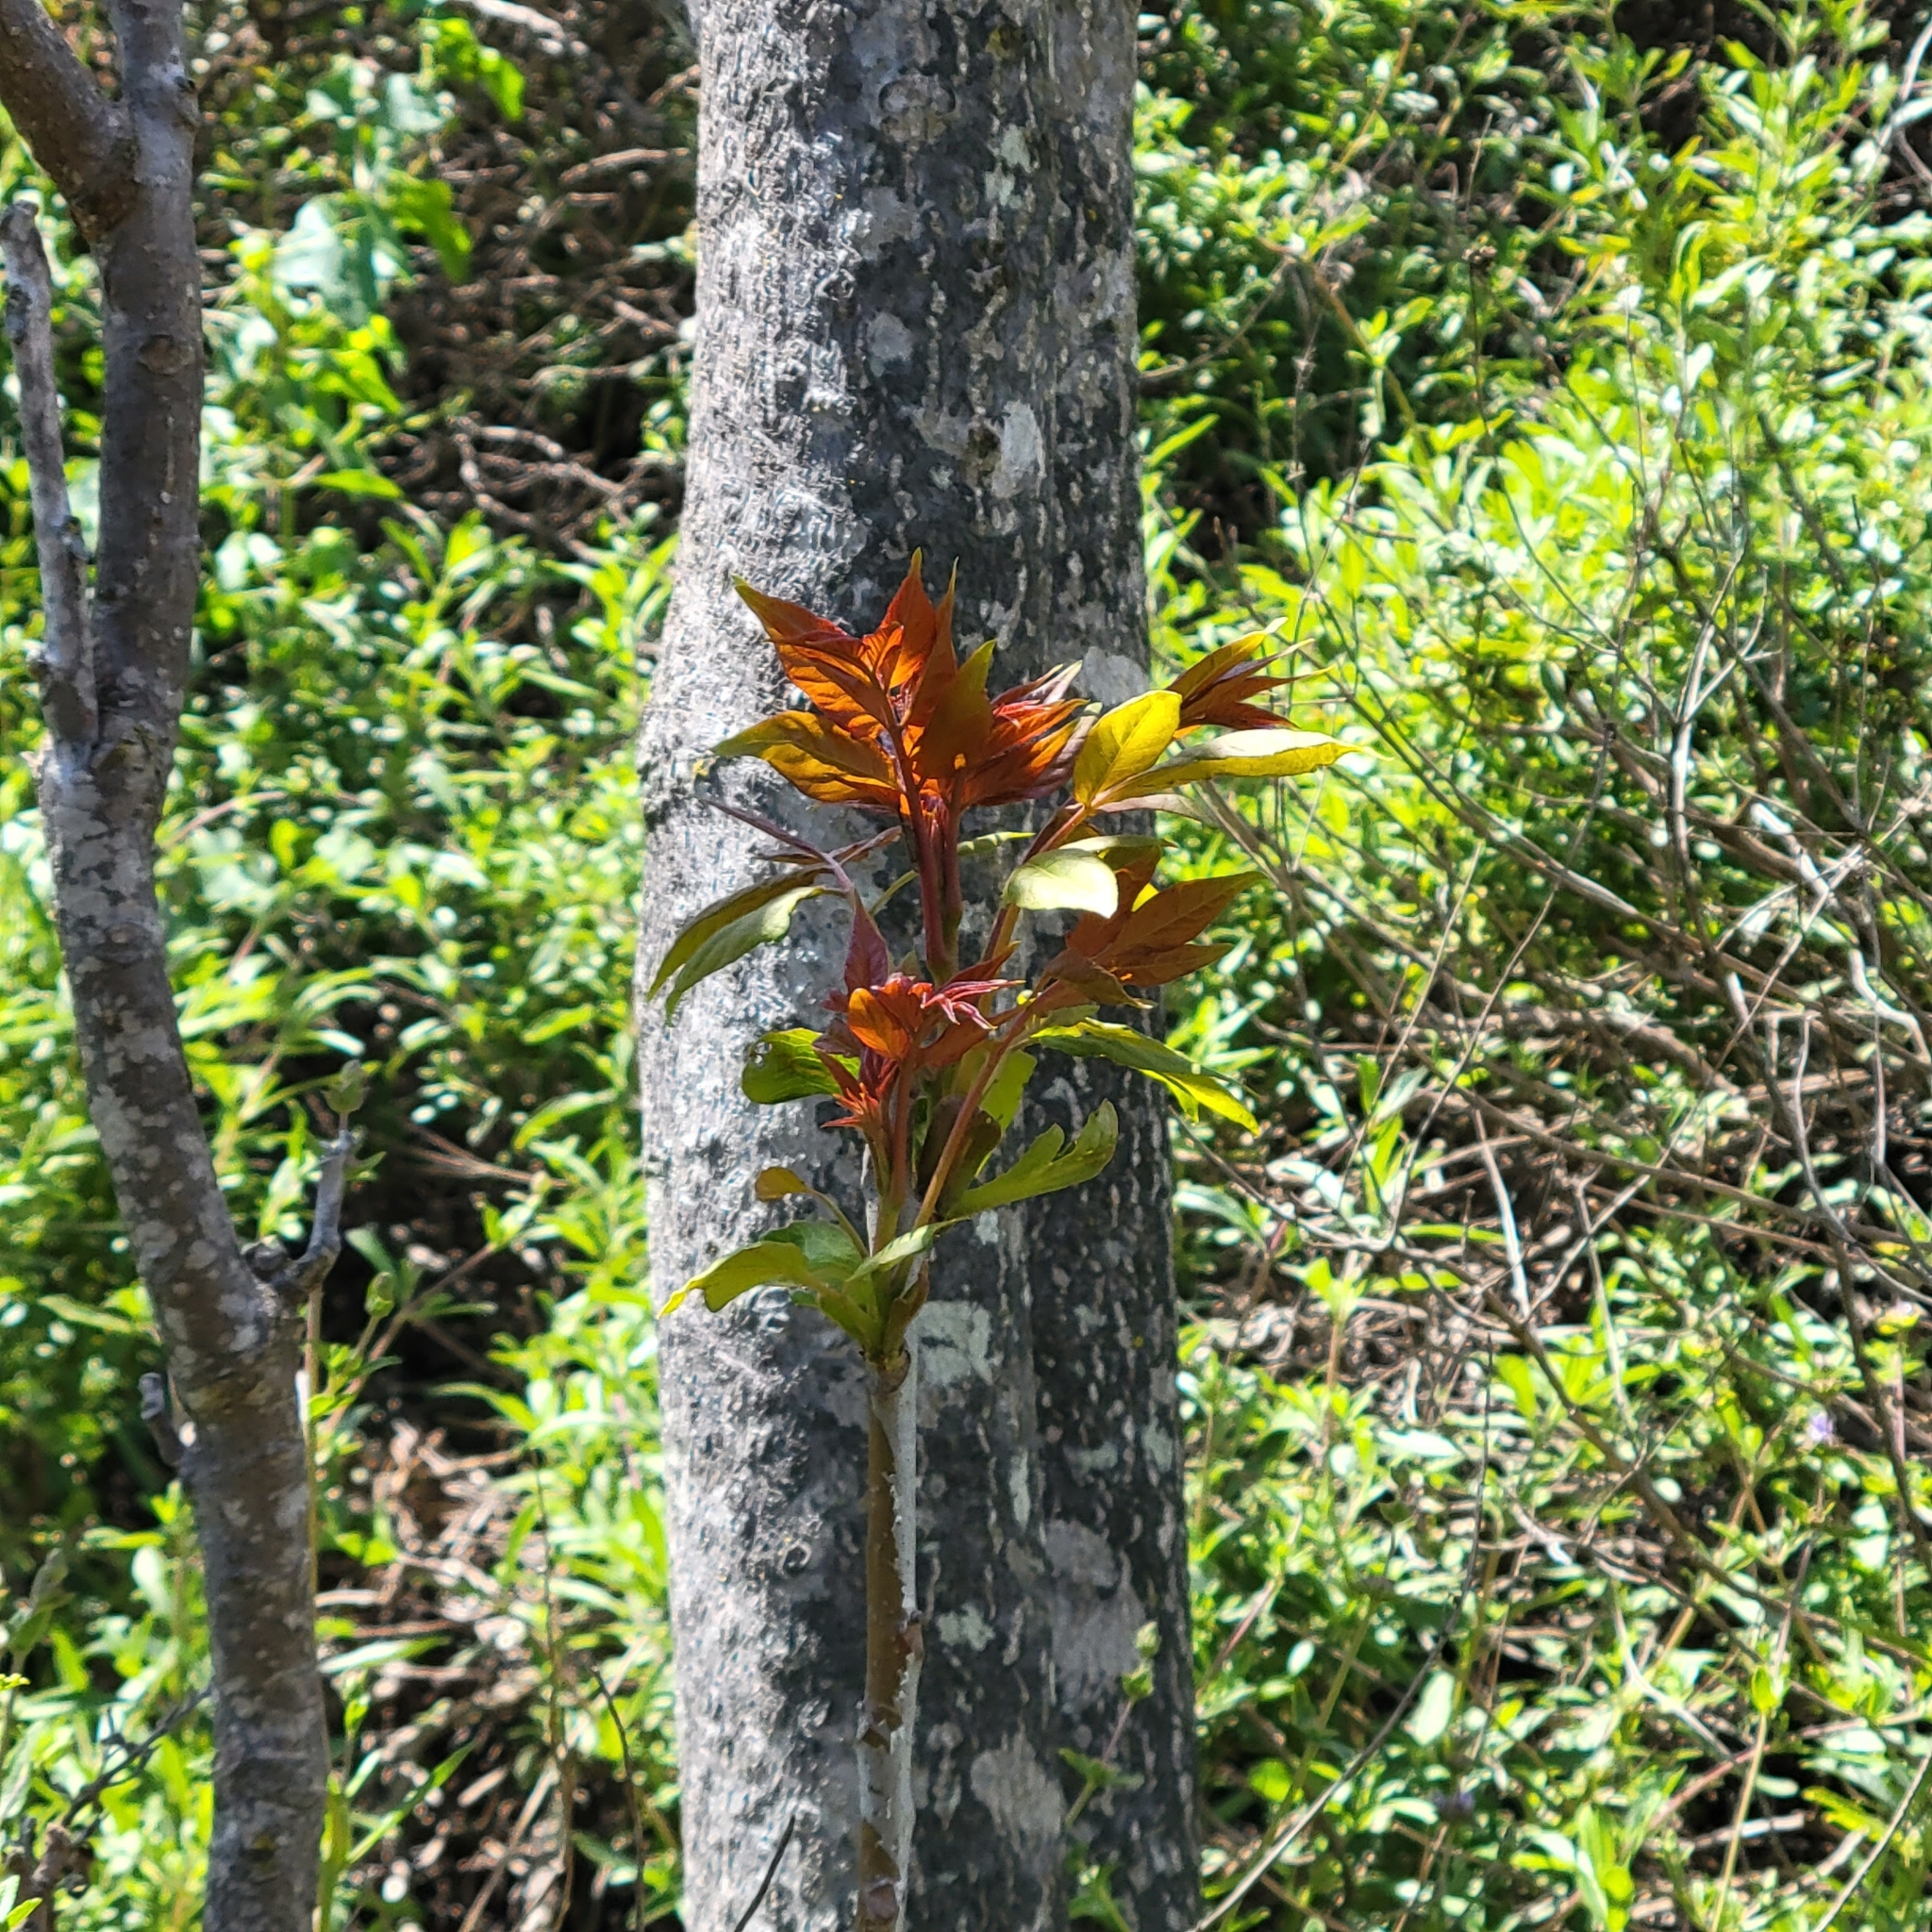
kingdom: Plantae
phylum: Tracheophyta
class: Magnoliopsida
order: Sapindales
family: Simaroubaceae
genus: Ailanthus
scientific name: Ailanthus altissima
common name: Tree-of-heaven
